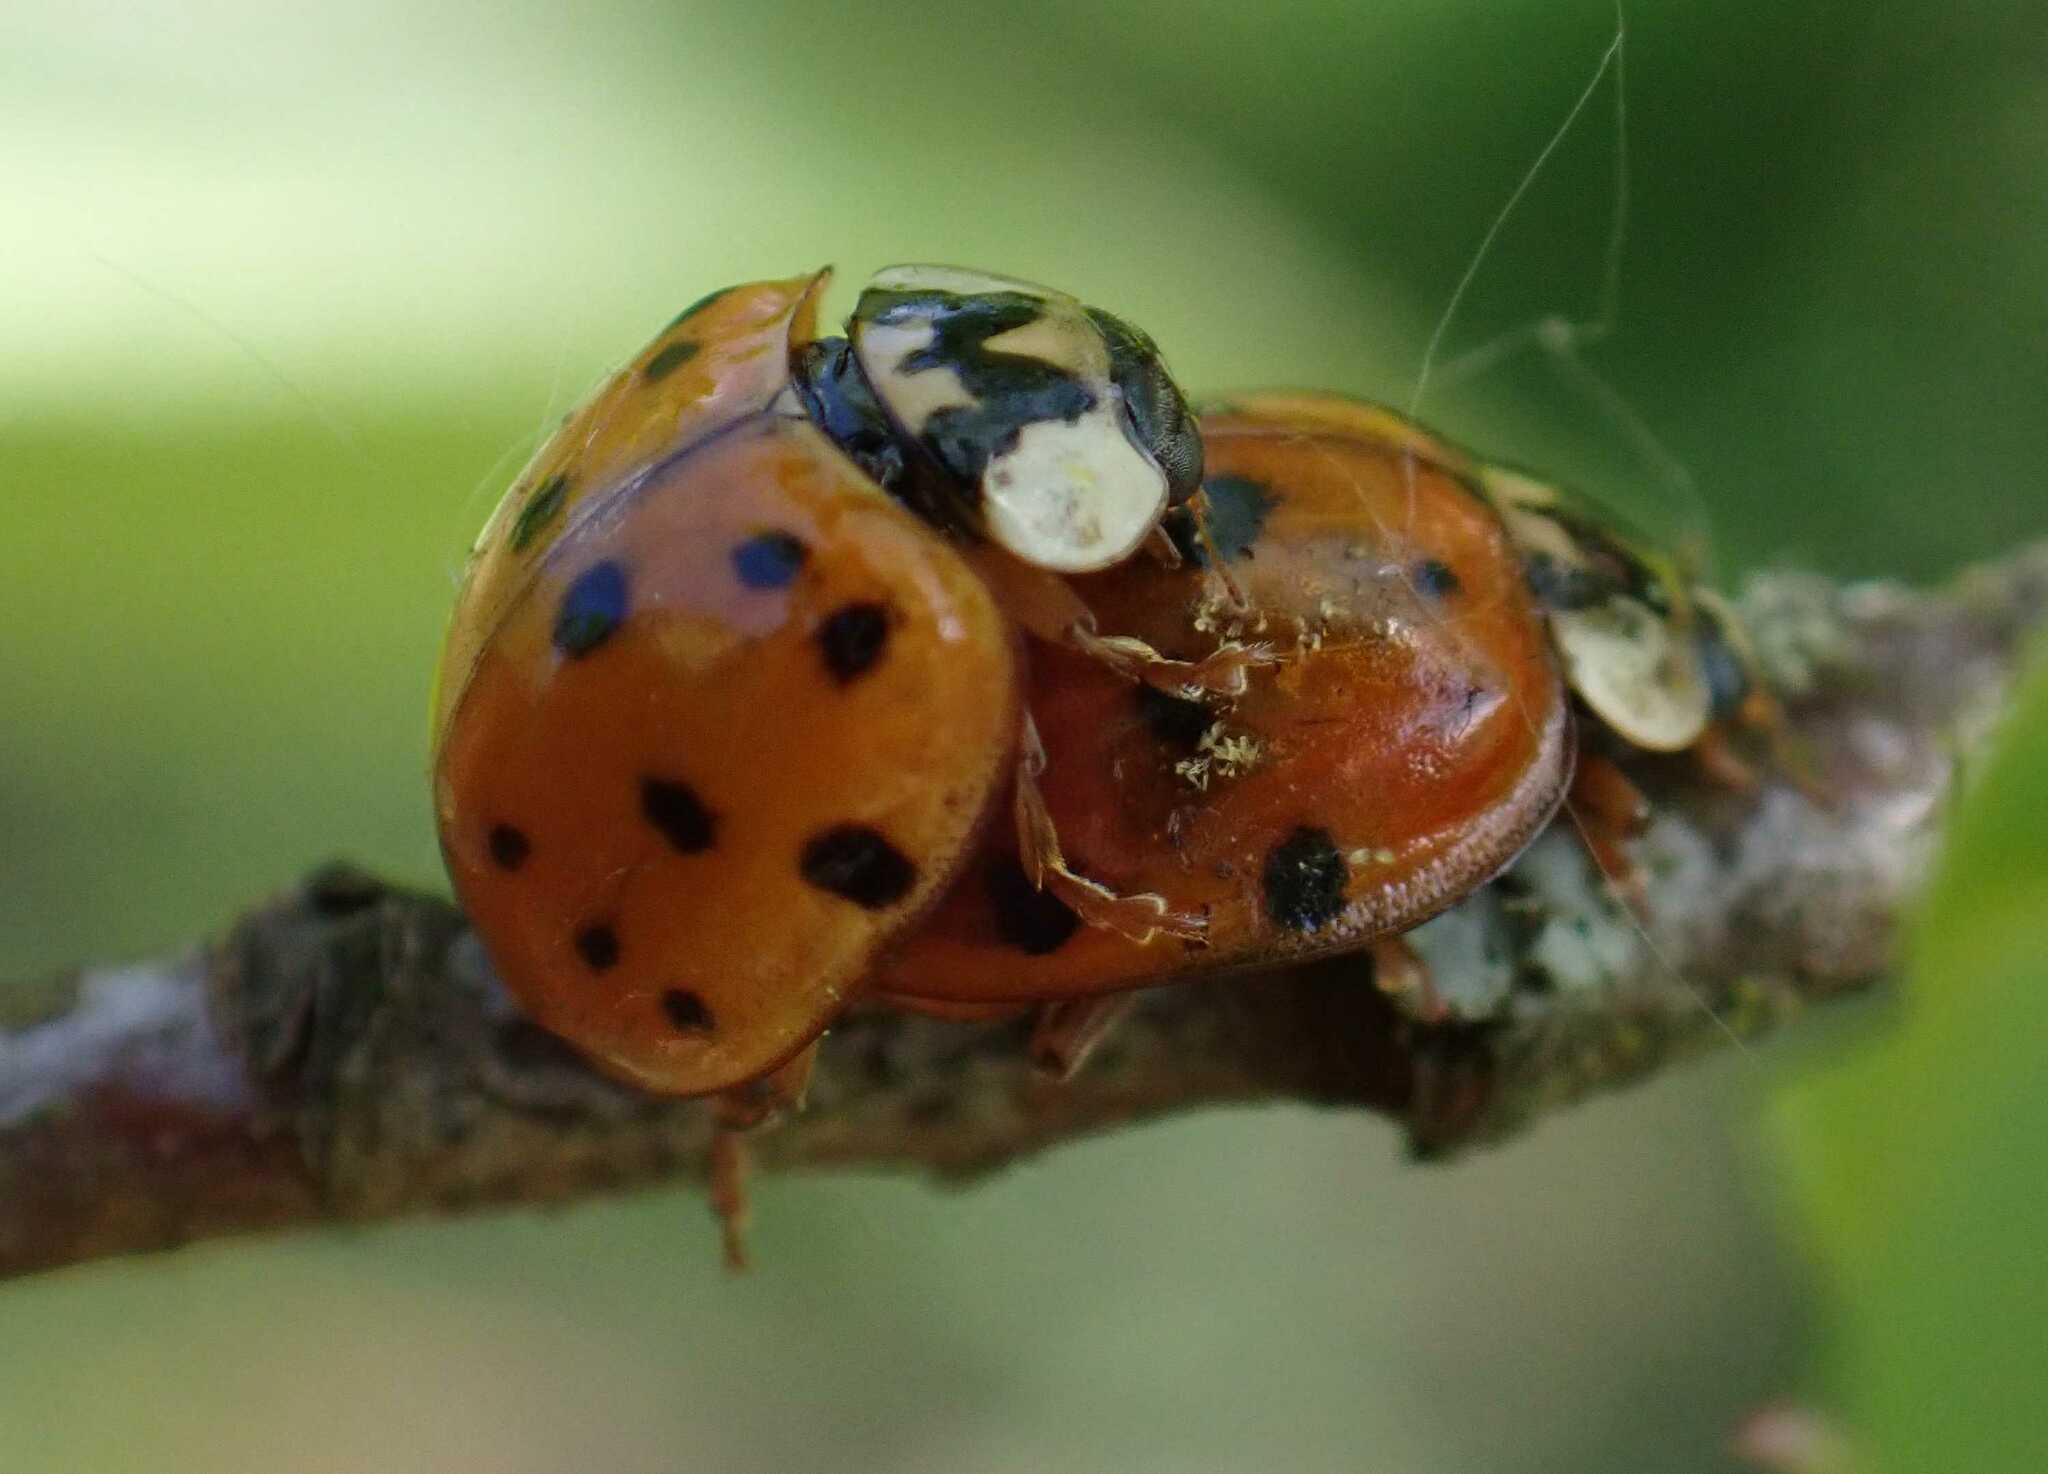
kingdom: Fungi
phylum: Ascomycota
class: Laboulbeniomycetes
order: Laboulbeniales
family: Laboulbeniaceae
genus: Hesperomyces
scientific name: Hesperomyces harmoniae
